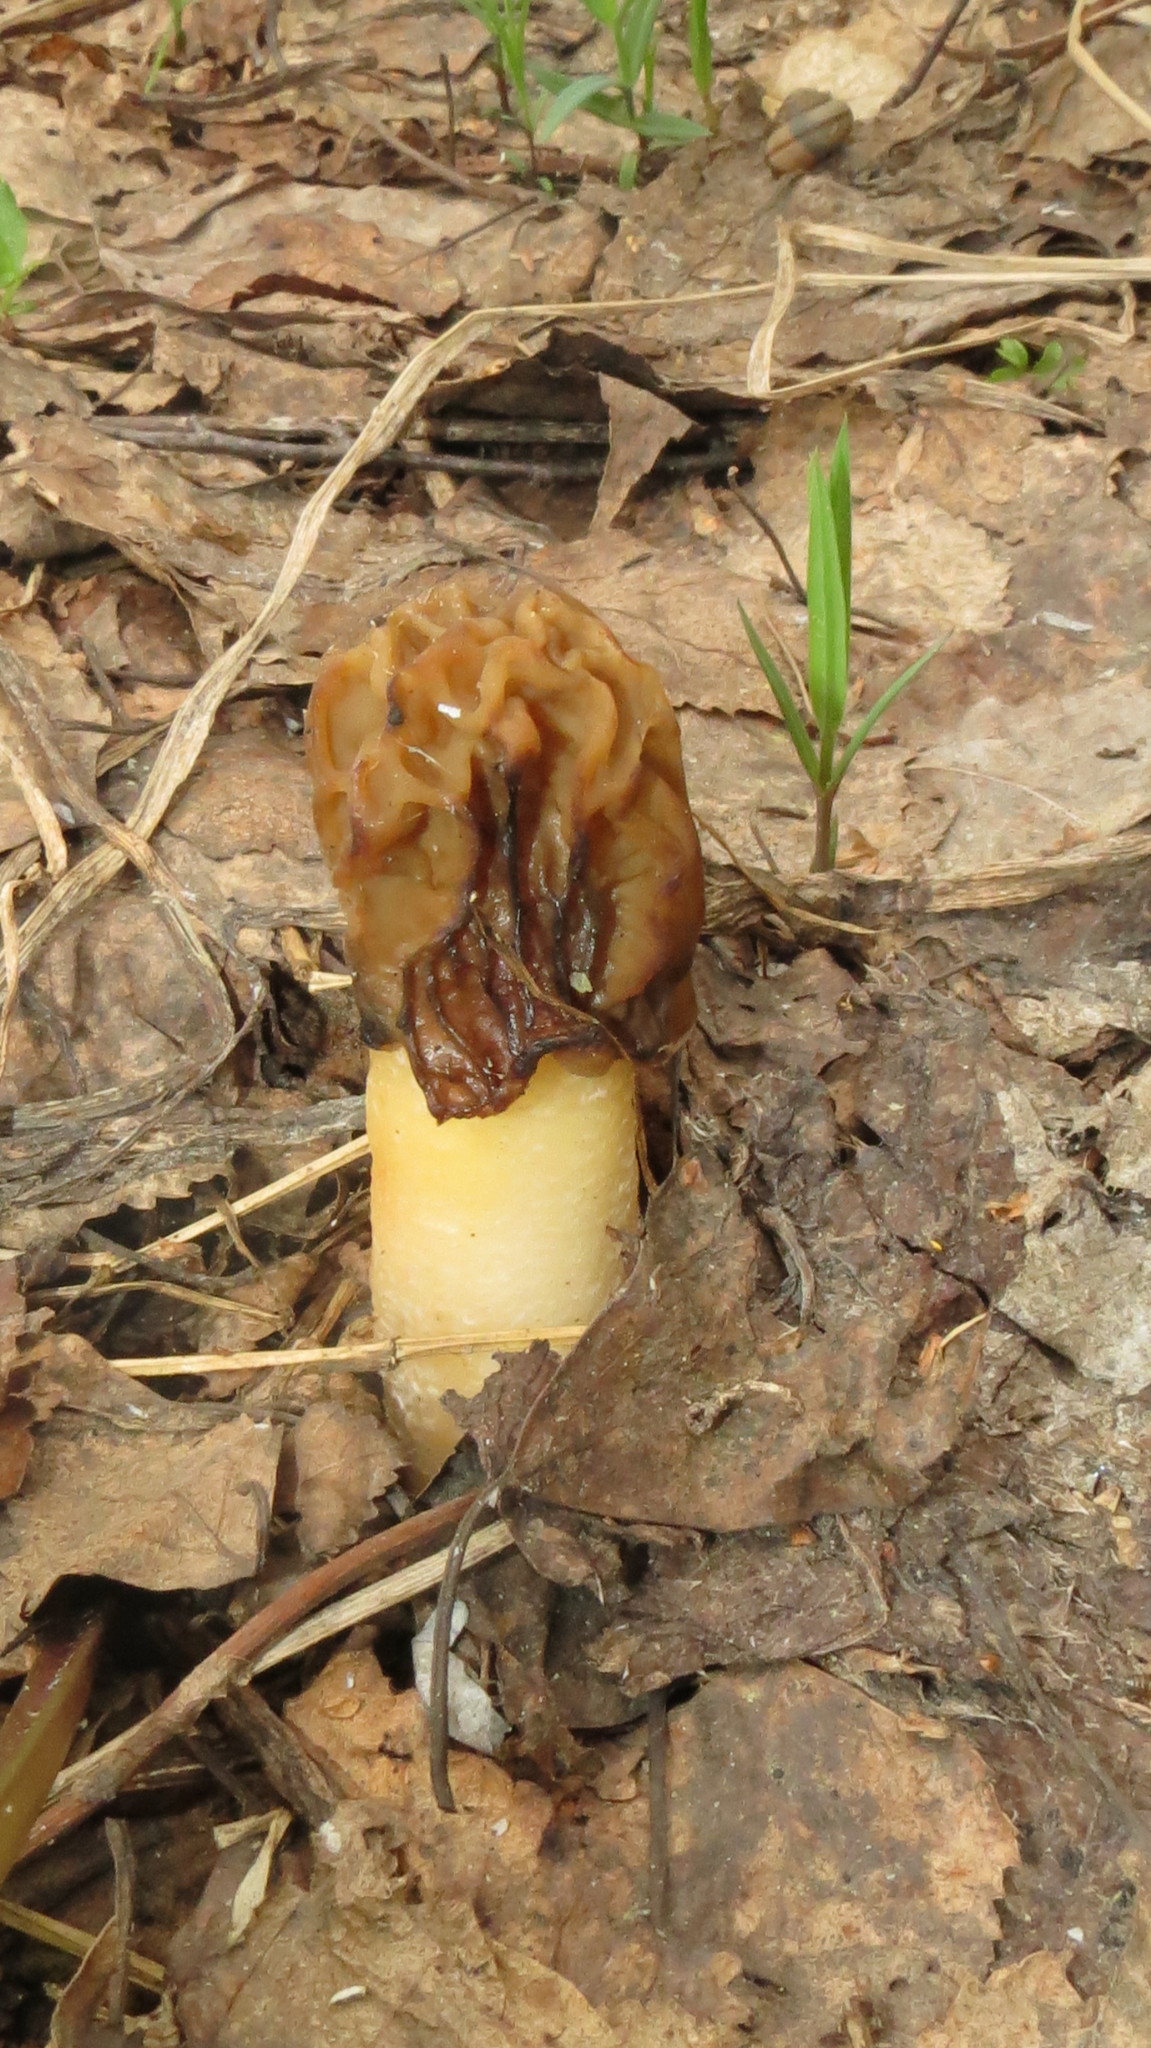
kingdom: Fungi
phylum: Ascomycota
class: Pezizomycetes
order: Pezizales
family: Morchellaceae
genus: Verpa
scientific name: Verpa bohemica
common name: Wrinkled thimble morel
